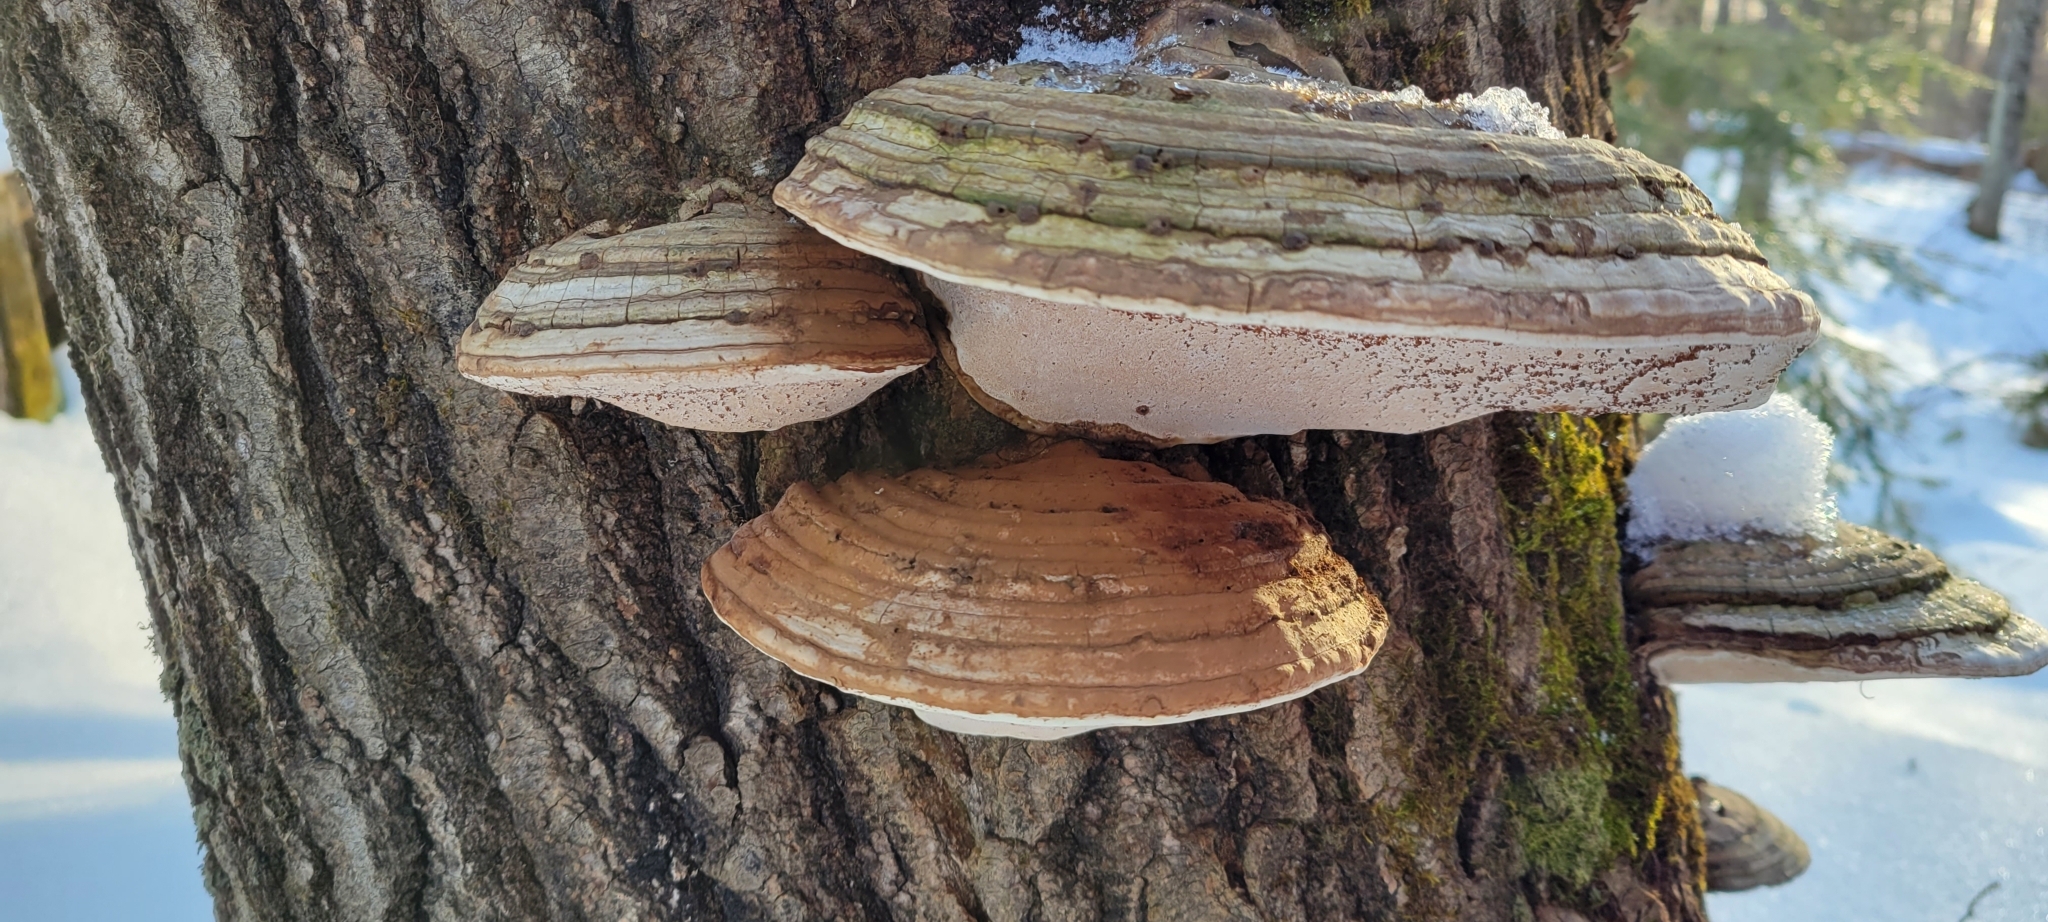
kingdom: Fungi
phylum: Basidiomycota
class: Agaricomycetes
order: Polyporales
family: Polyporaceae
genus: Ganoderma
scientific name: Ganoderma applanatum
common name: Artist's bracket
